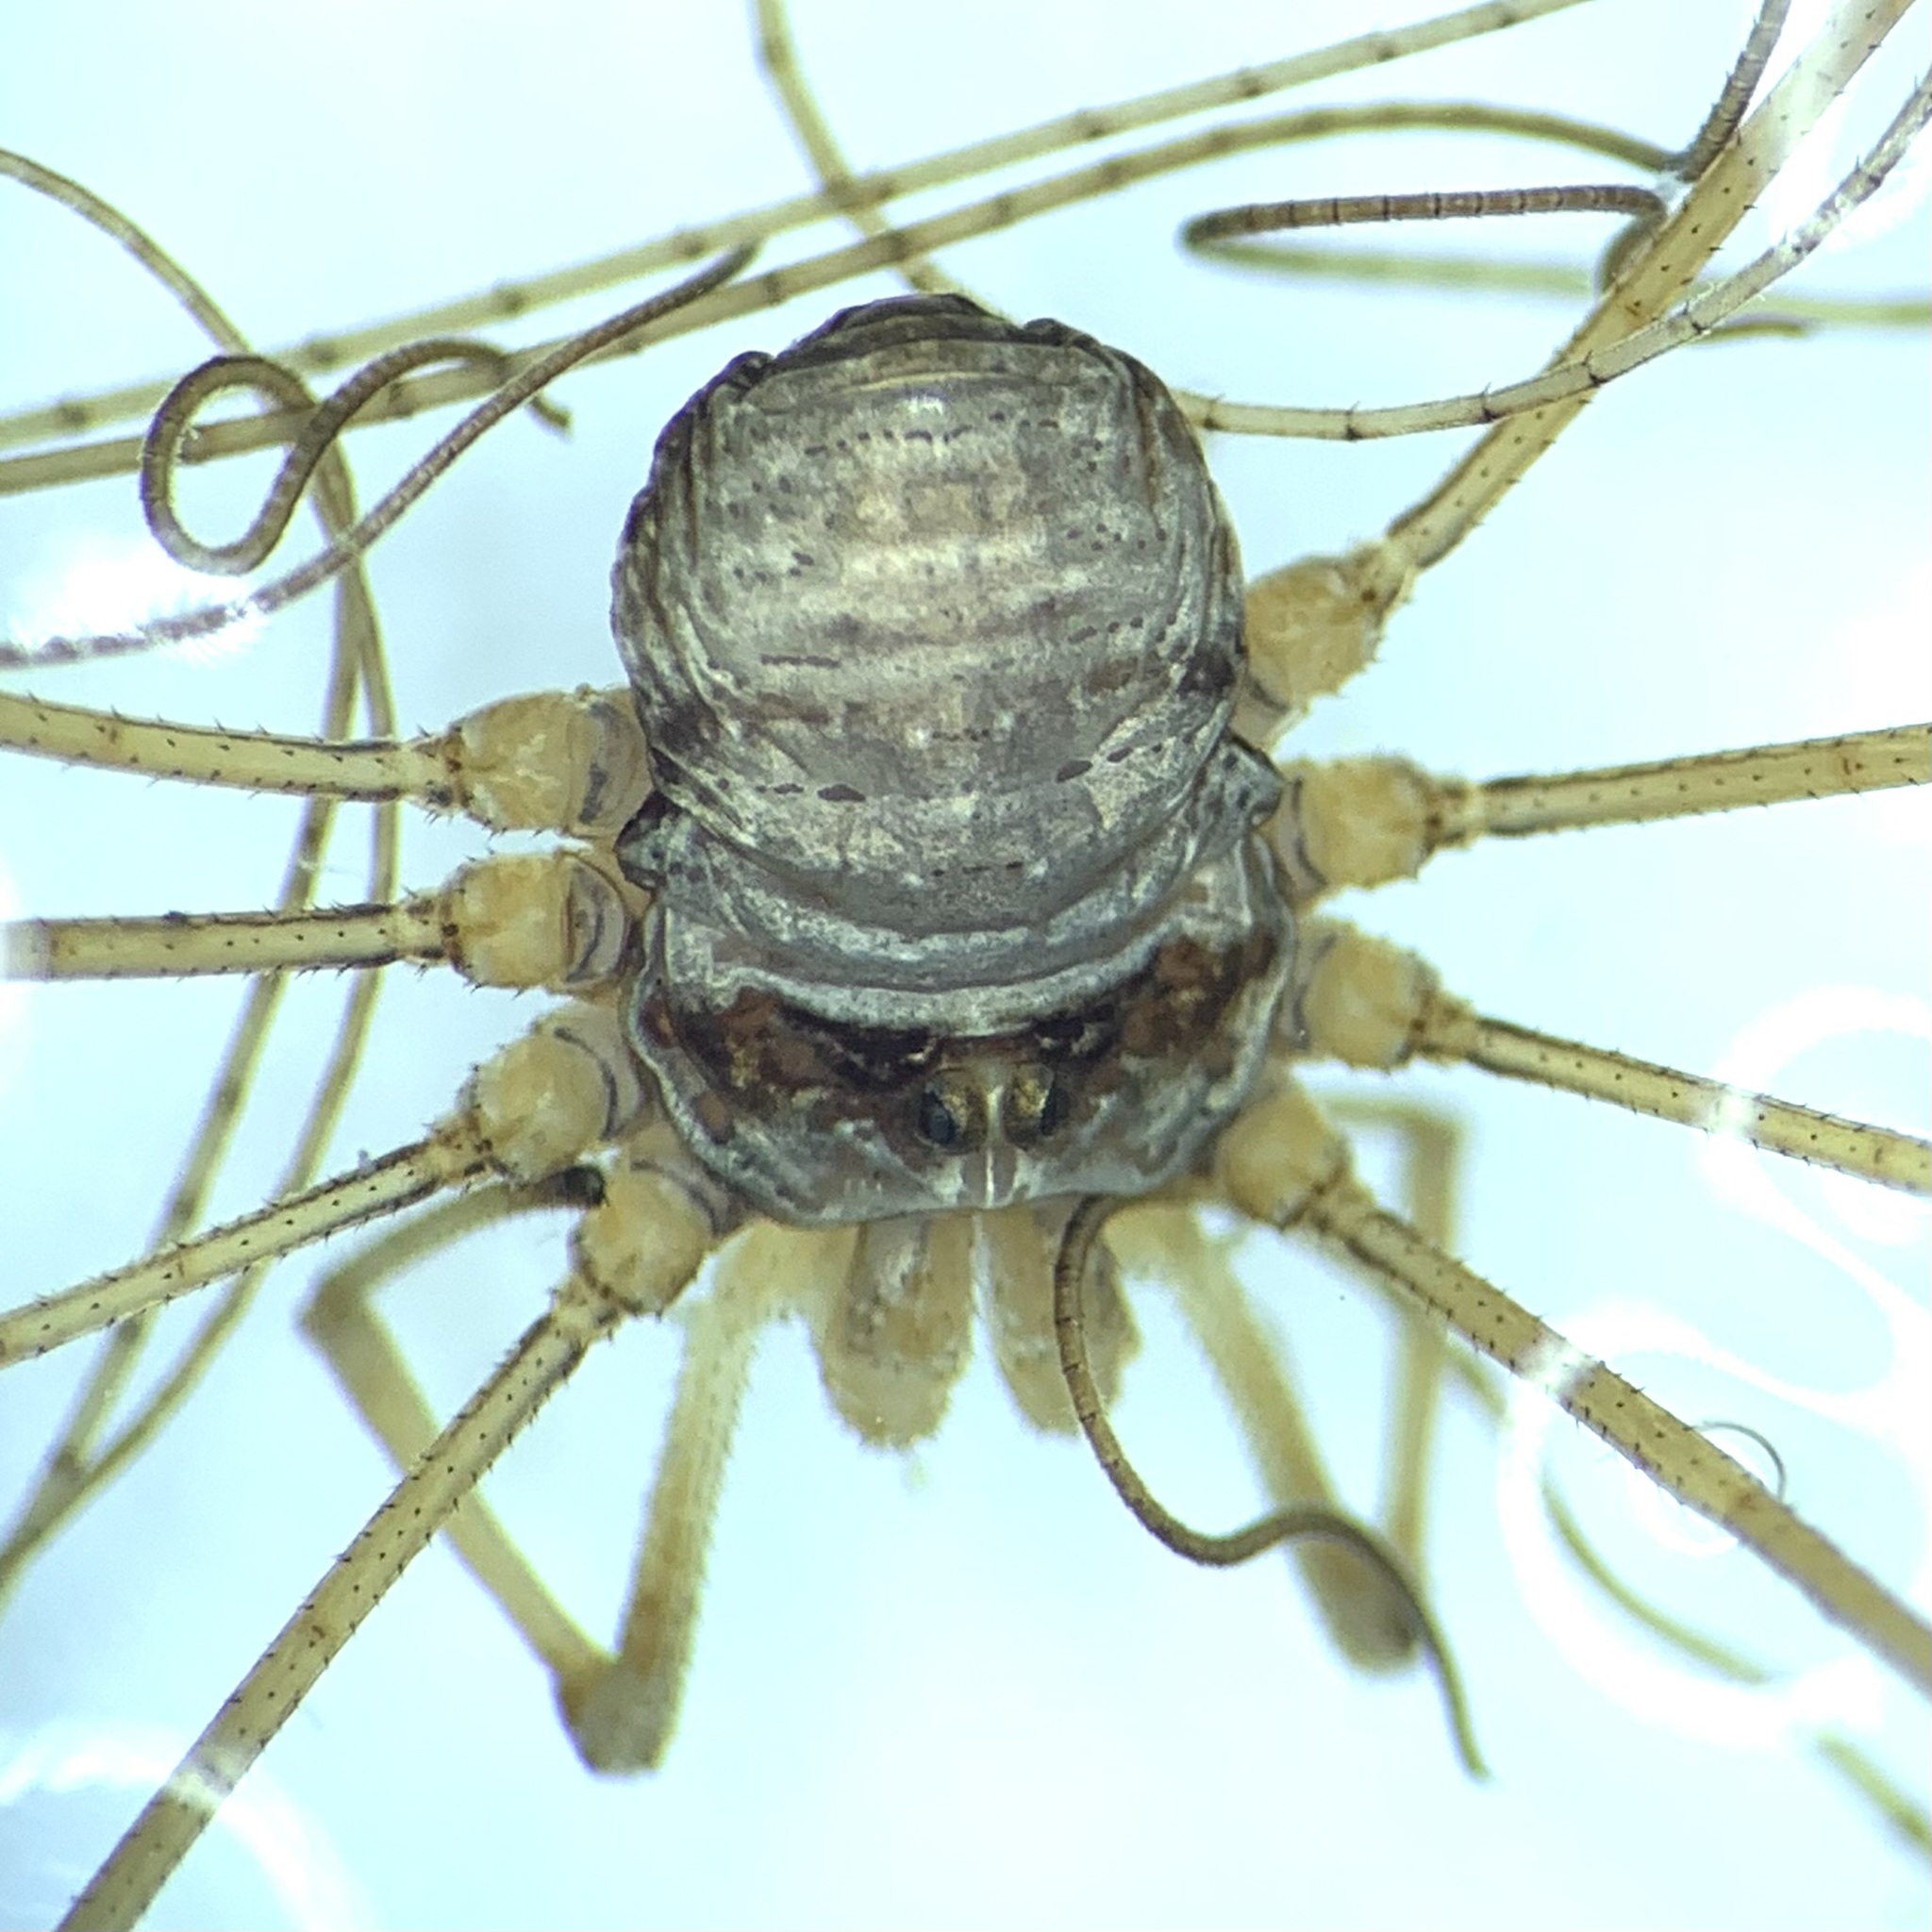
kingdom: Animalia
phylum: Arthropoda
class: Arachnida
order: Opiliones
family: Phalangiidae
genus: Dicranopalpus
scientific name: Dicranopalpus ramosus
